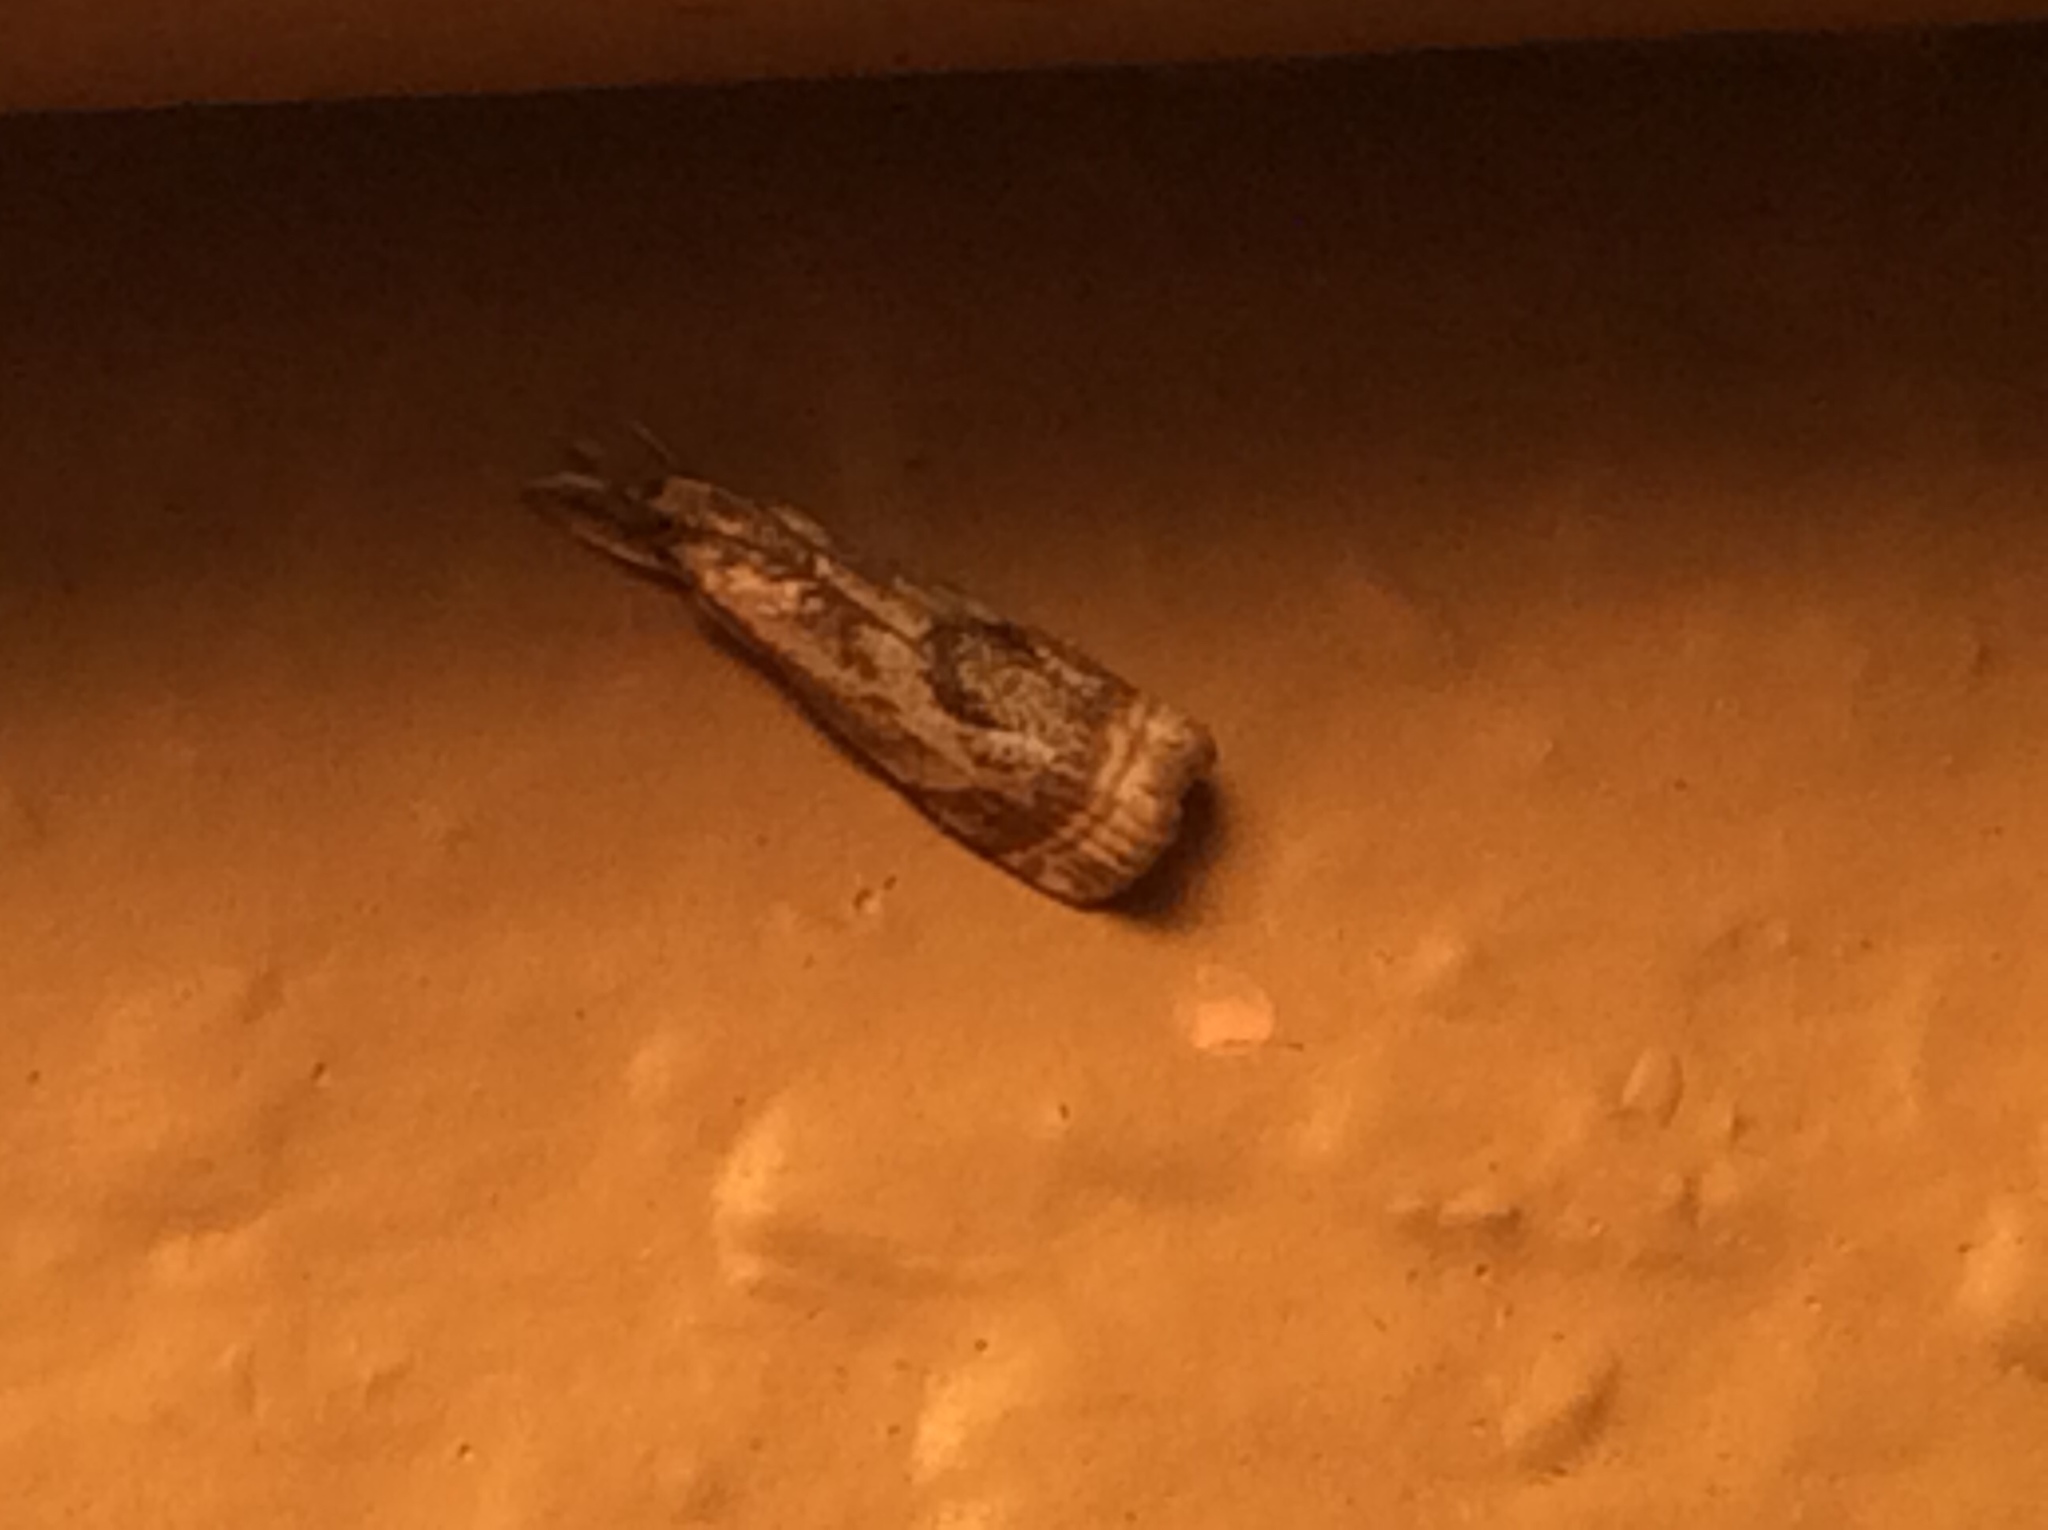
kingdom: Animalia
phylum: Arthropoda
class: Insecta
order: Lepidoptera
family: Crambidae
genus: Microcrambus
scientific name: Microcrambus elegans
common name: Elegant grass-veneer
